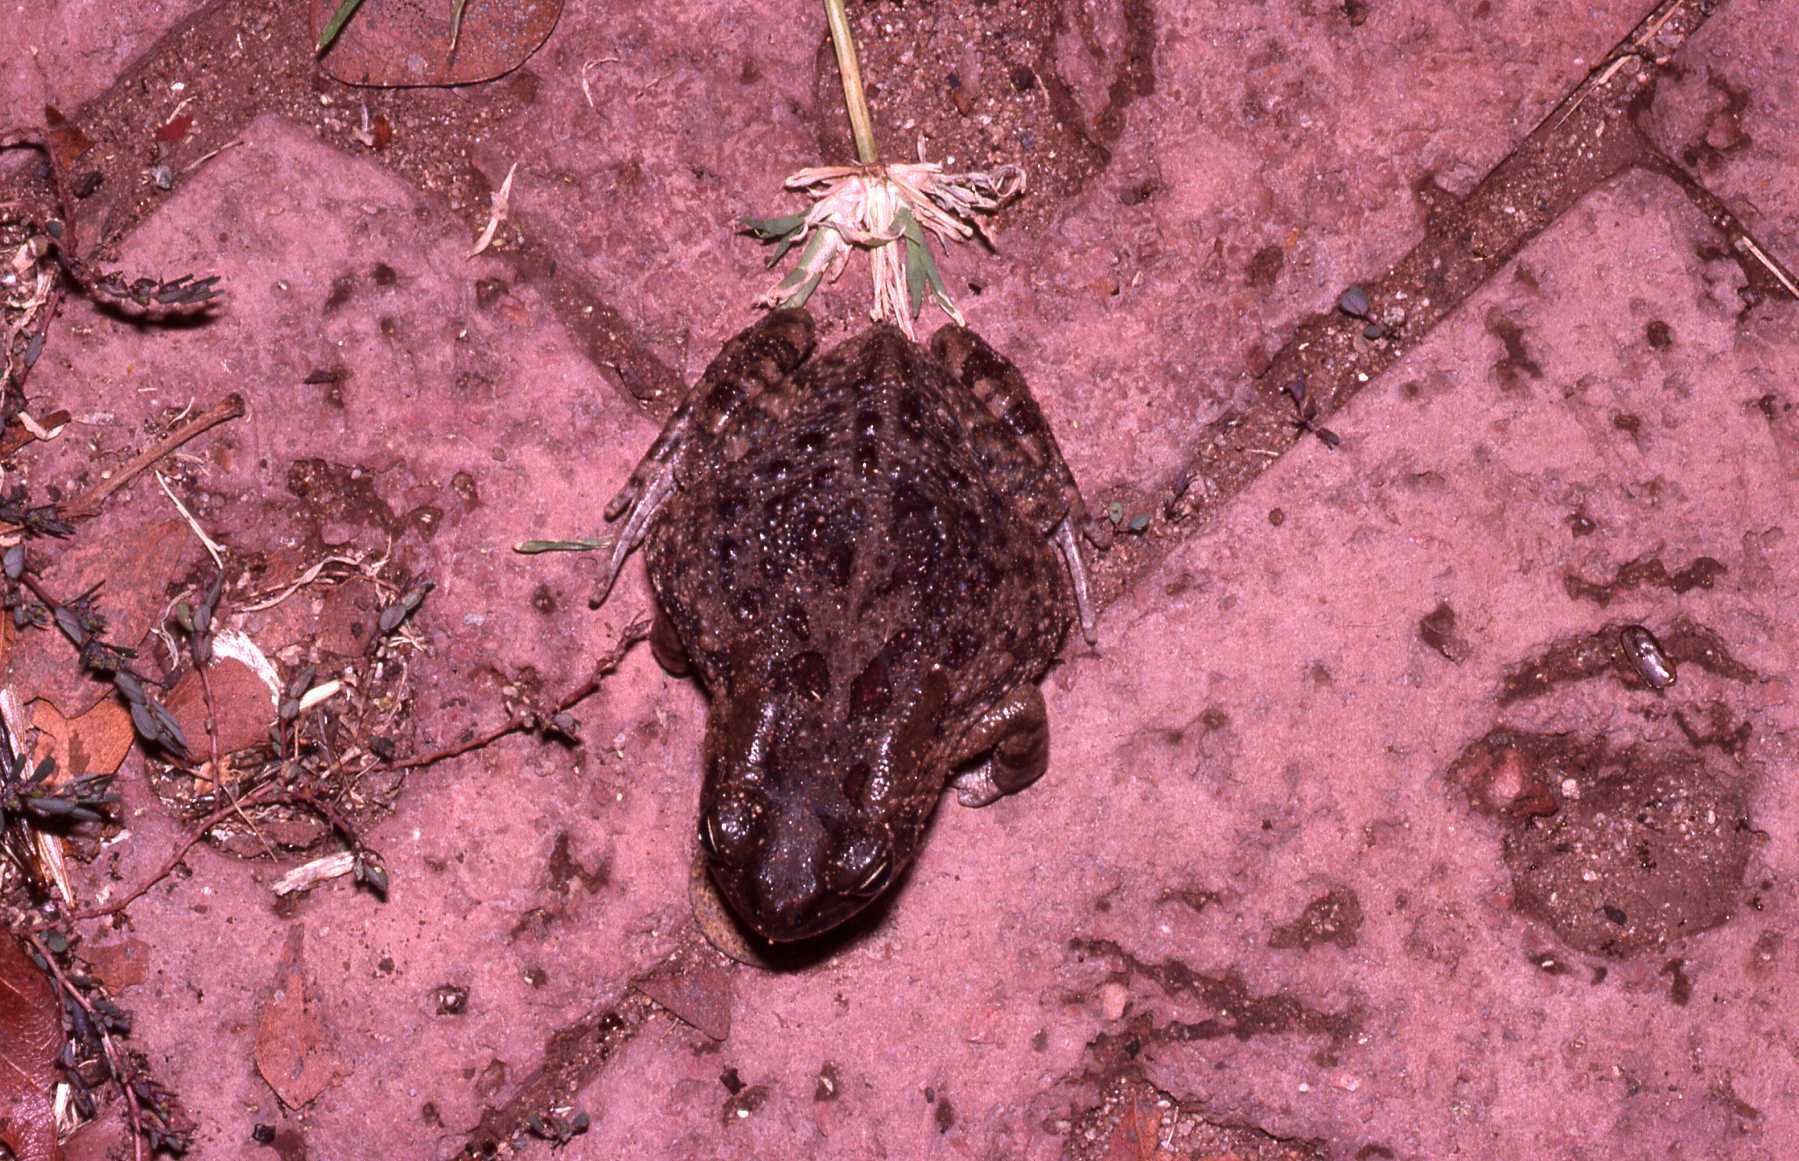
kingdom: Animalia
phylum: Chordata
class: Amphibia
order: Anura
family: Bufonidae
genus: Sclerophrys
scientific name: Sclerophrys garmani
